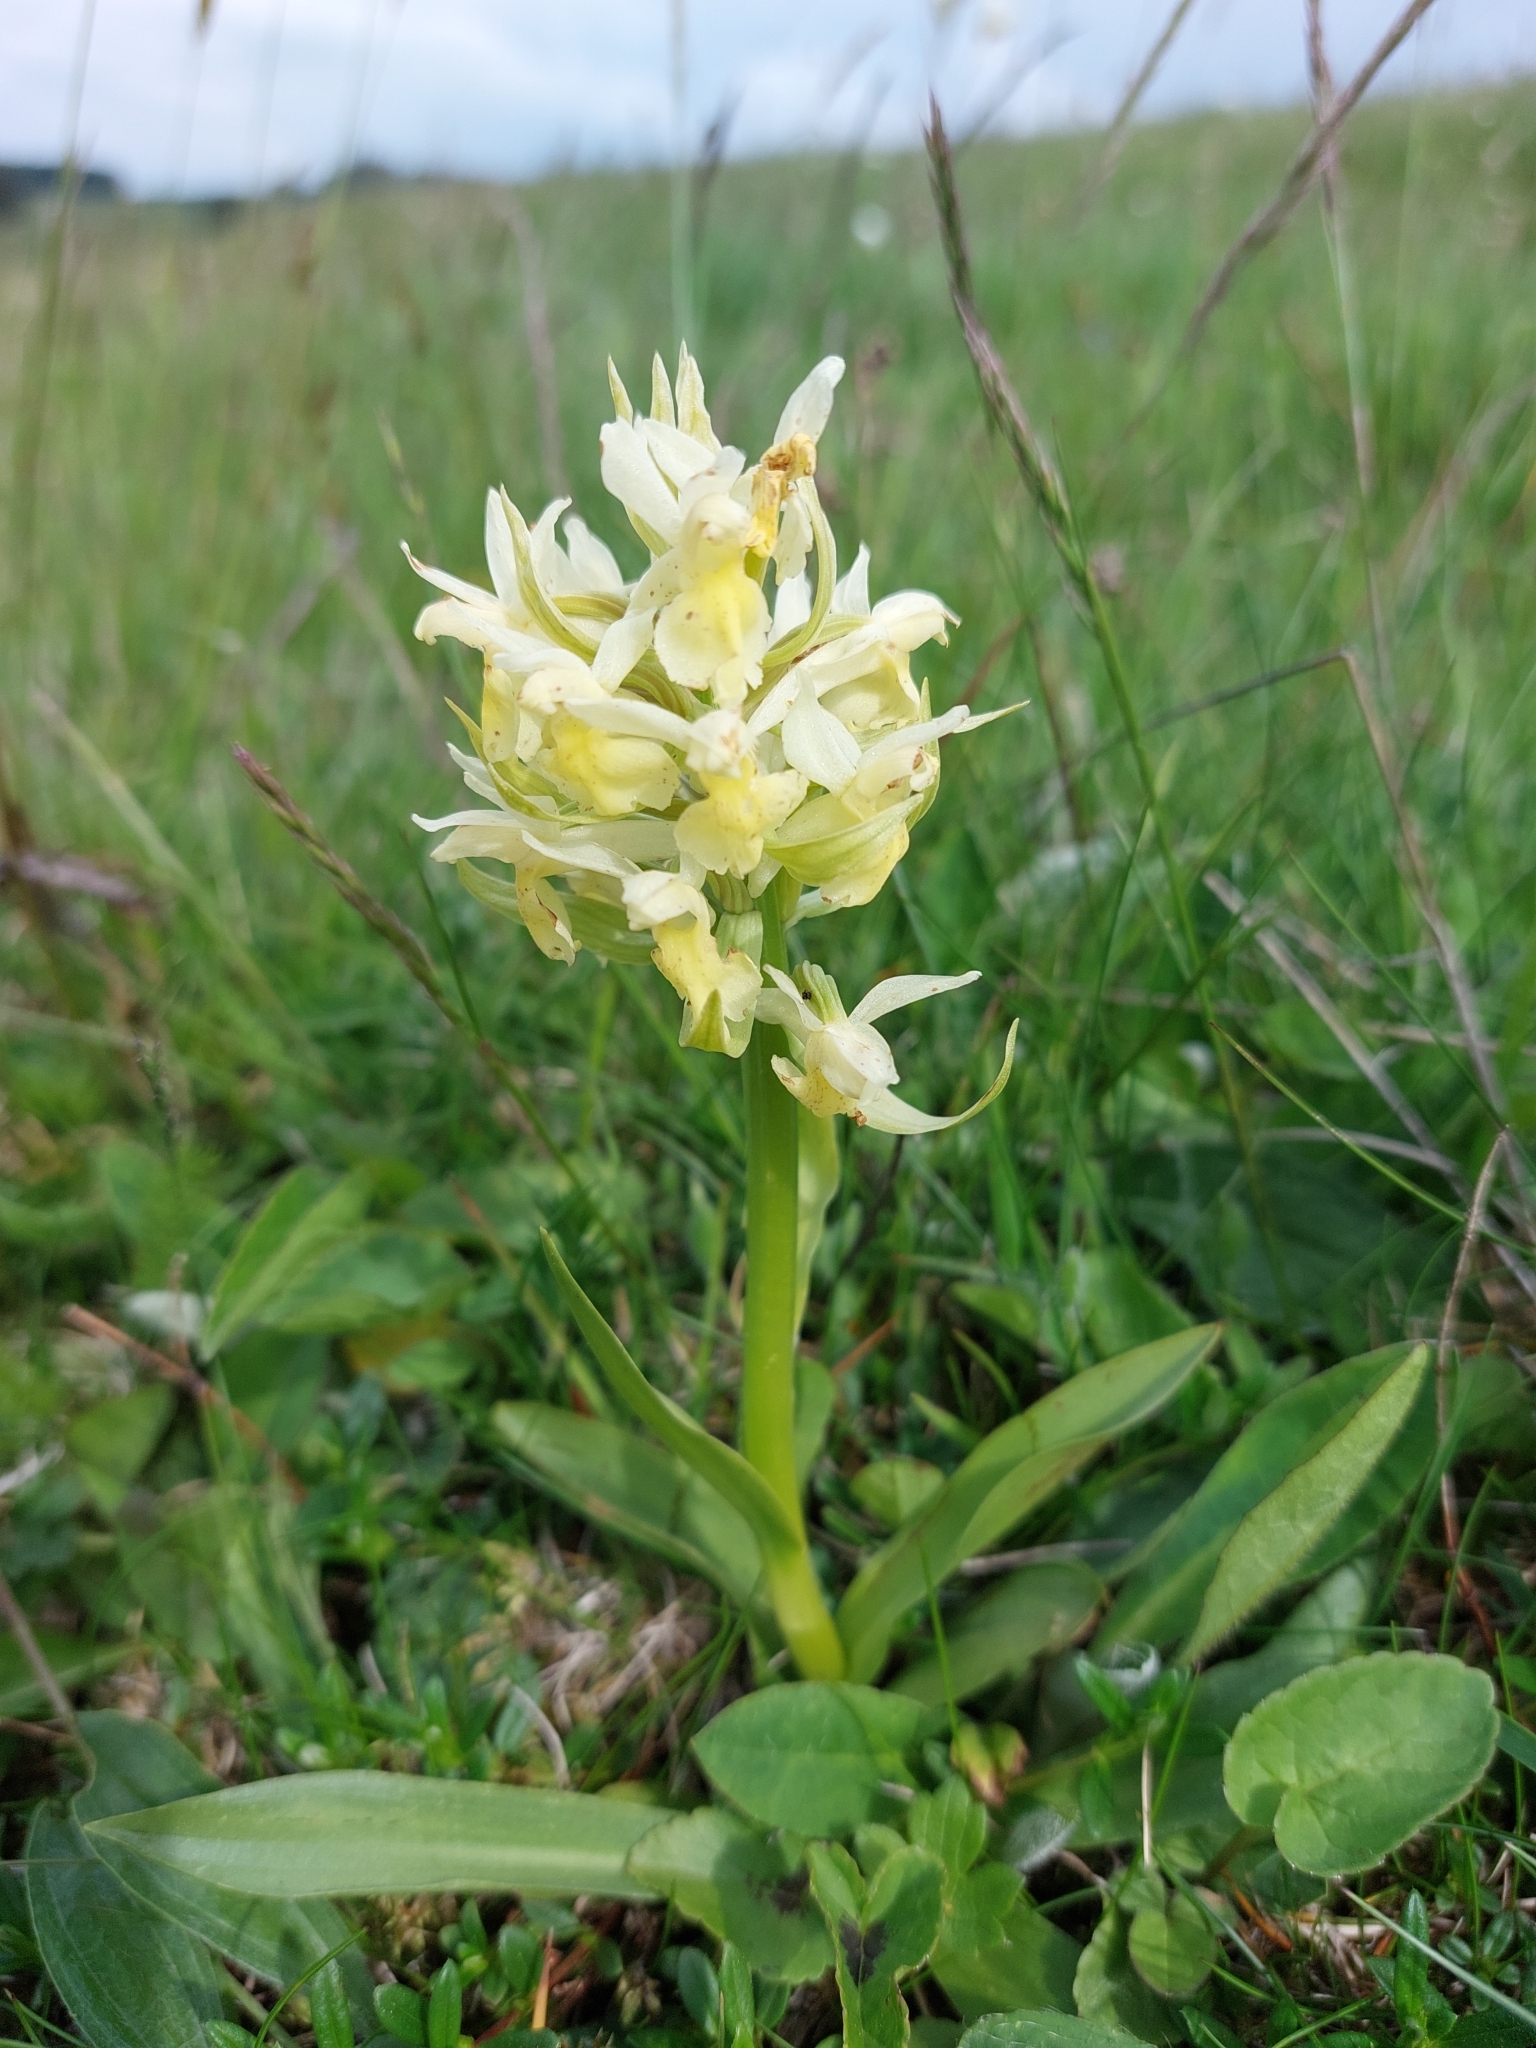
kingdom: Plantae
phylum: Tracheophyta
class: Liliopsida
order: Asparagales
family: Orchidaceae
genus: Dactylorhiza
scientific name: Dactylorhiza sambucina
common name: Elder-flowered orchid
